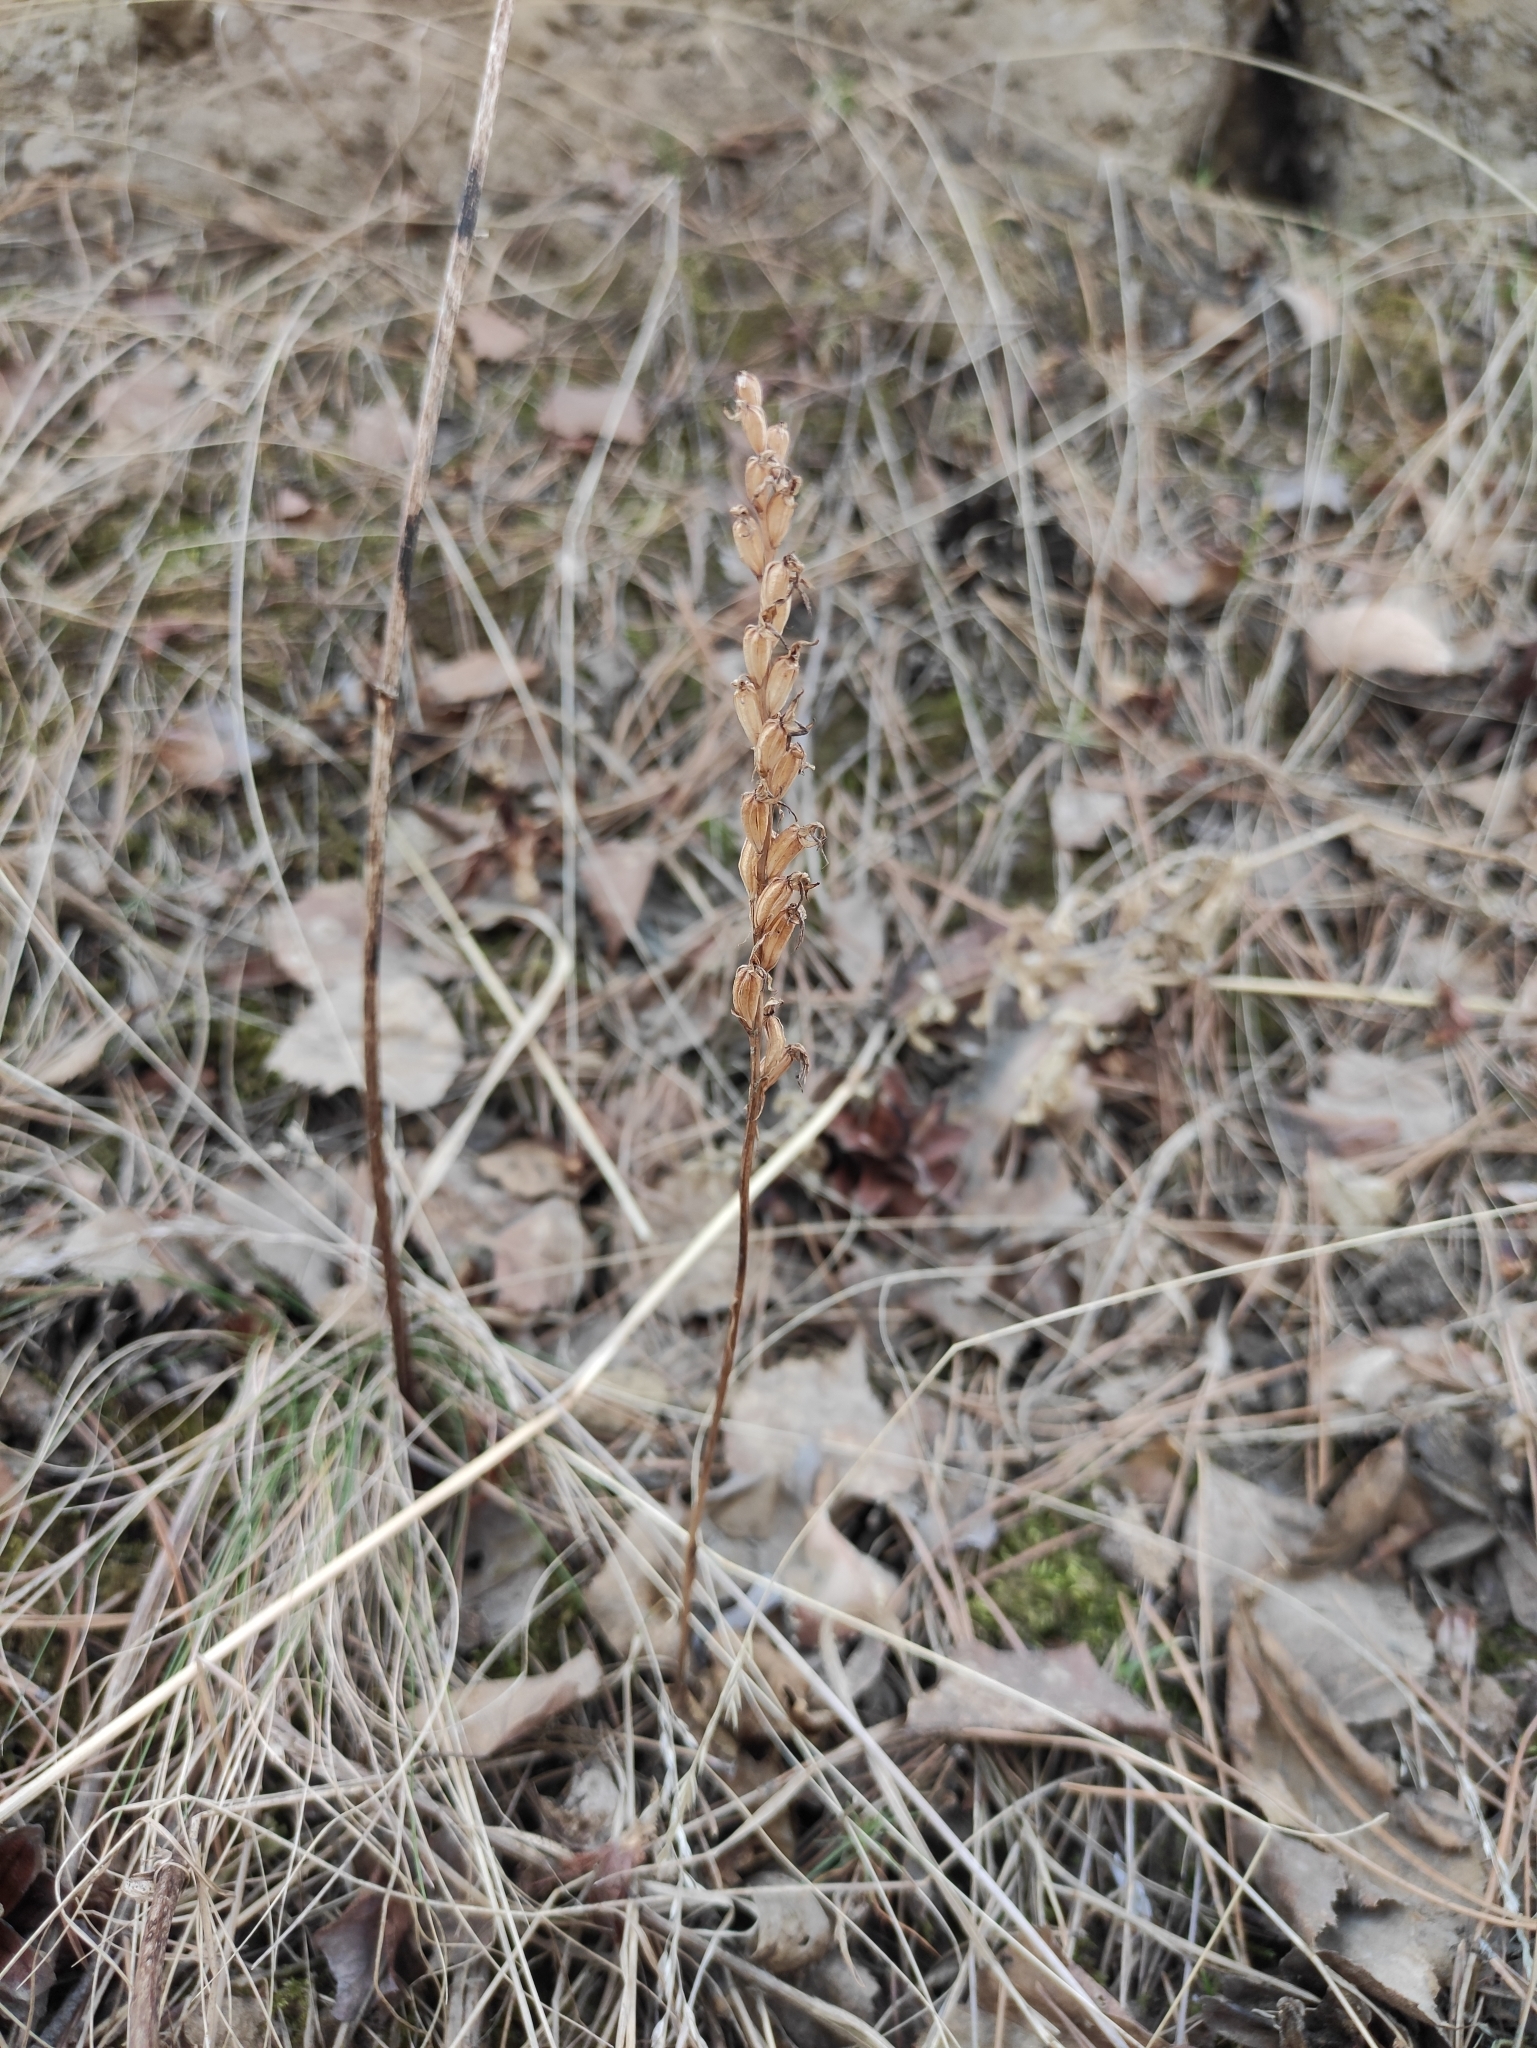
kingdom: Plantae
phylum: Tracheophyta
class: Liliopsida
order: Asparagales
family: Orchidaceae
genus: Hemipilia
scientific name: Hemipilia cucullata
